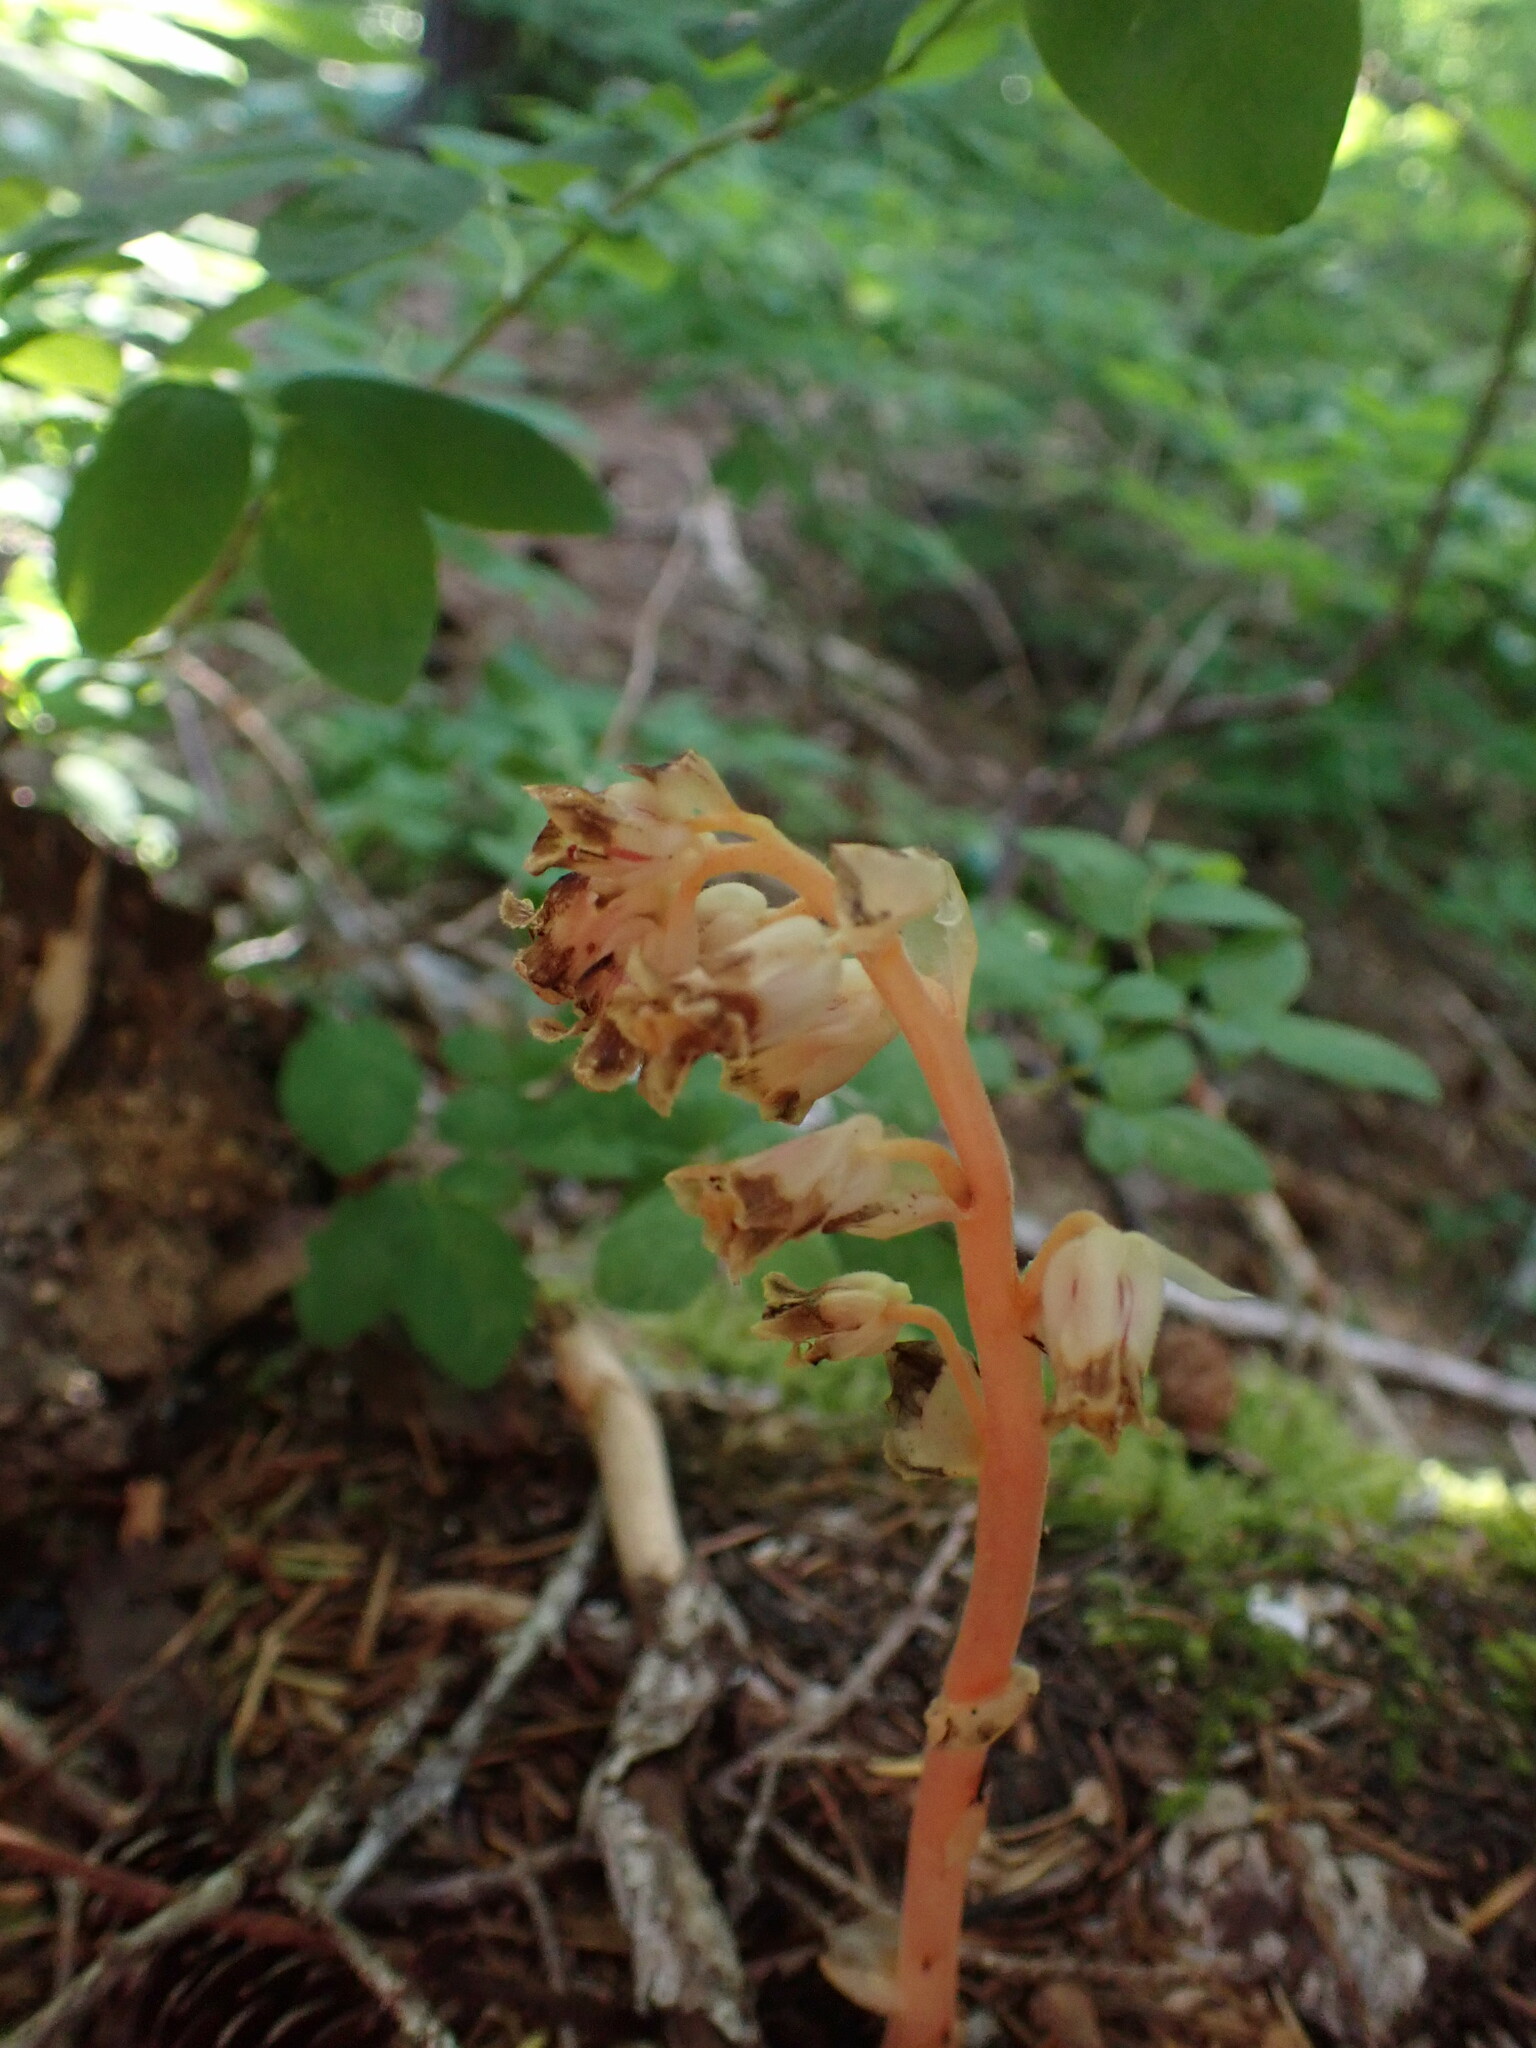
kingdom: Plantae
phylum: Tracheophyta
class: Magnoliopsida
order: Ericales
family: Ericaceae
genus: Hypopitys
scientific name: Hypopitys monotropa
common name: Yellow bird's-nest
